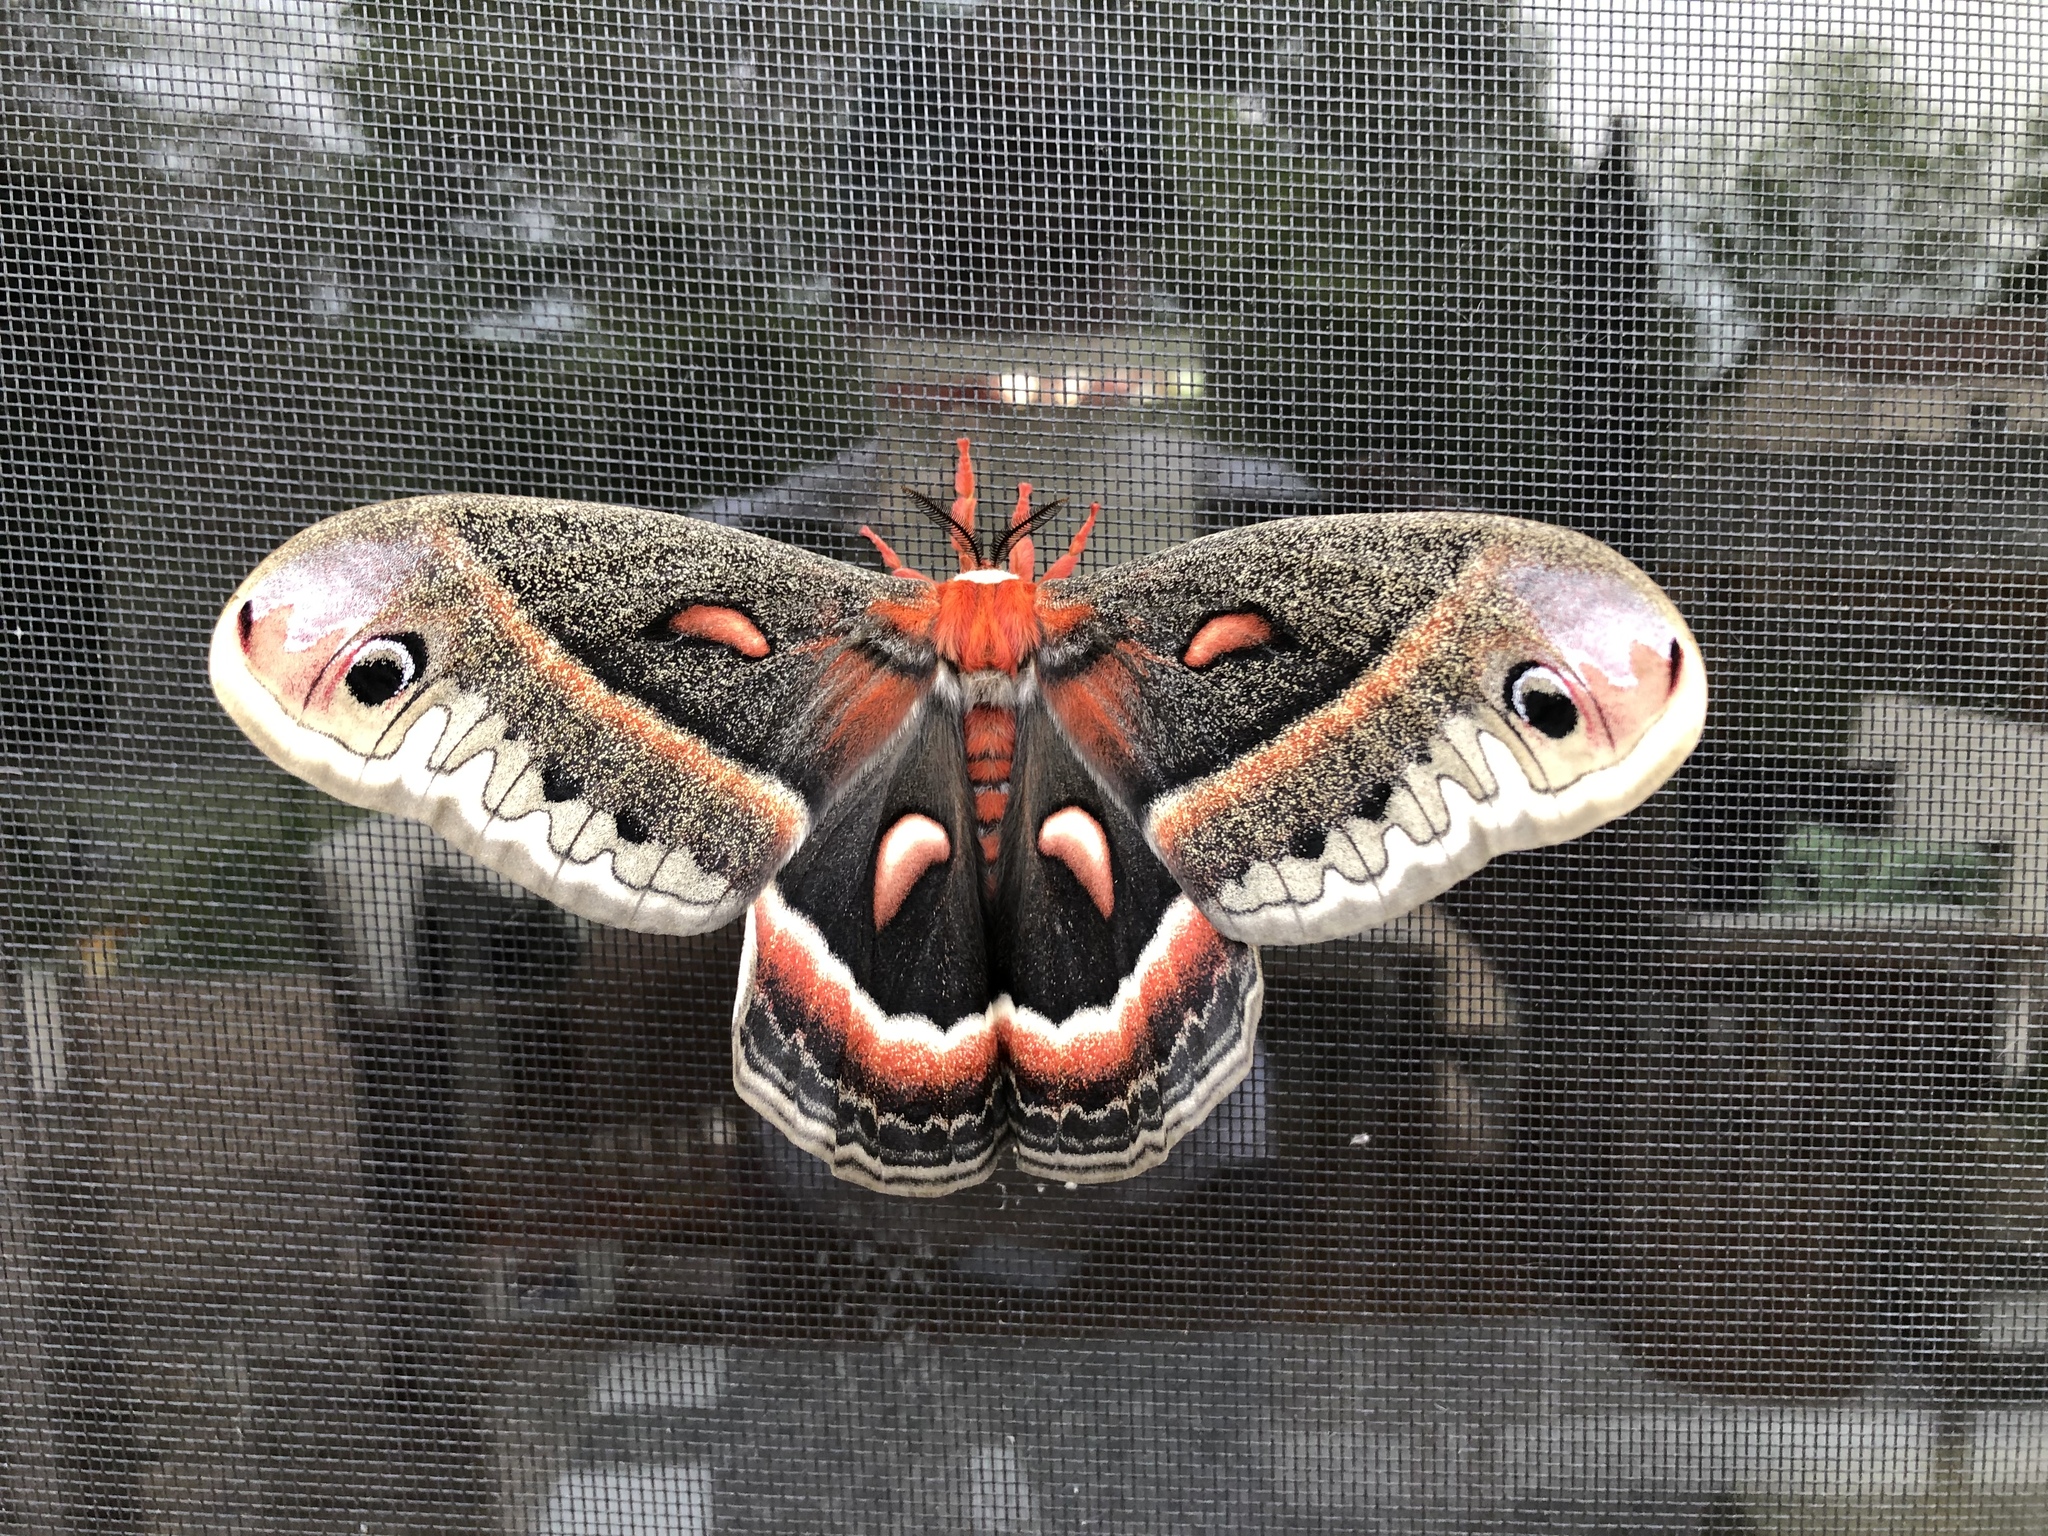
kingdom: Animalia
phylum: Arthropoda
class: Insecta
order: Lepidoptera
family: Saturniidae
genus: Hyalophora
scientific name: Hyalophora cecropia
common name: Cecropia silkmoth
